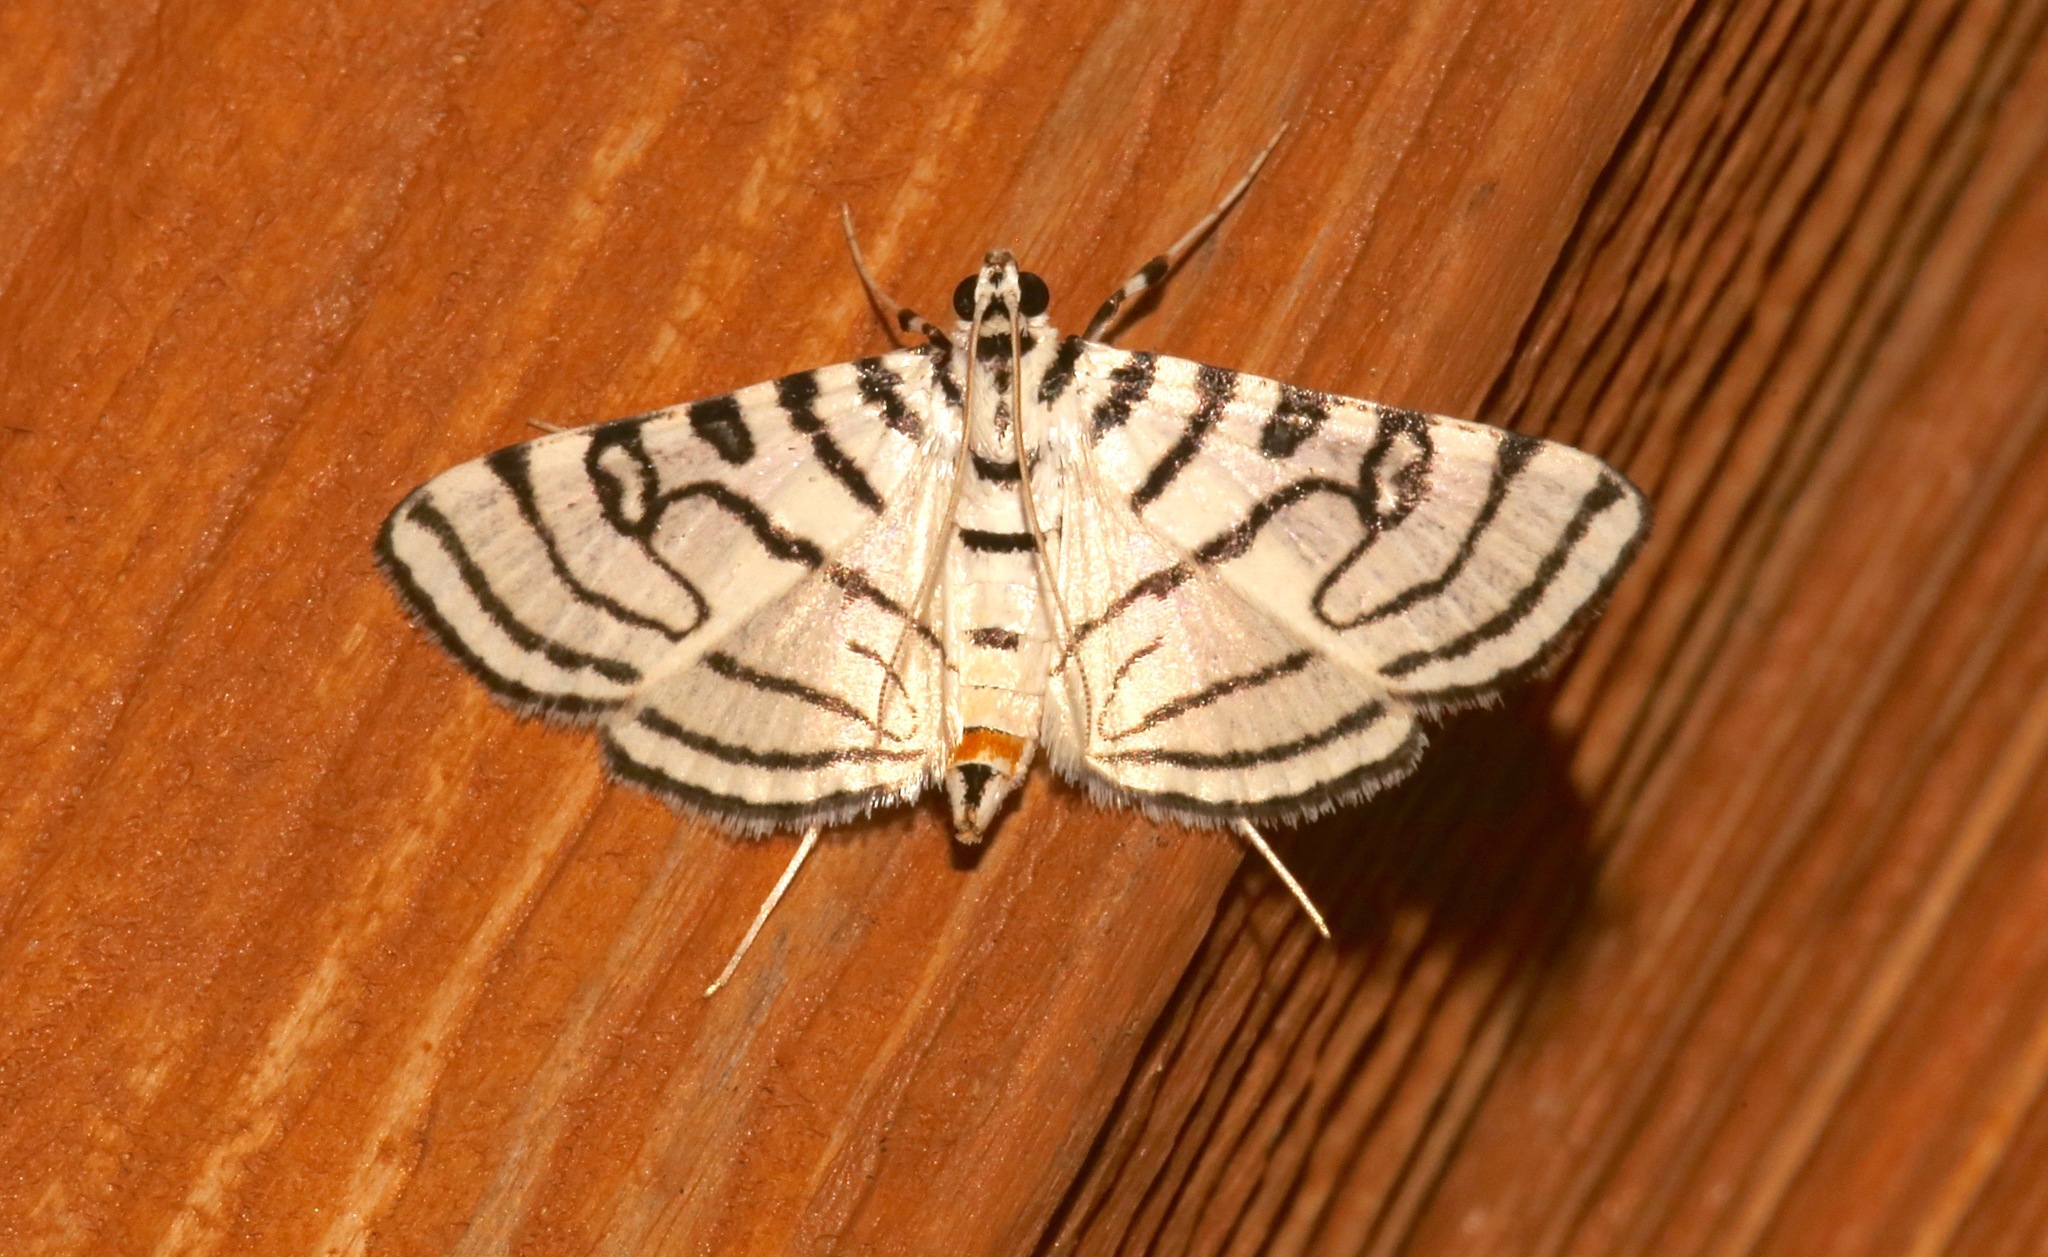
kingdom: Animalia
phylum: Arthropoda
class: Insecta
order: Lepidoptera
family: Crambidae
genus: Conchylodes
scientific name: Conchylodes ovulalis
